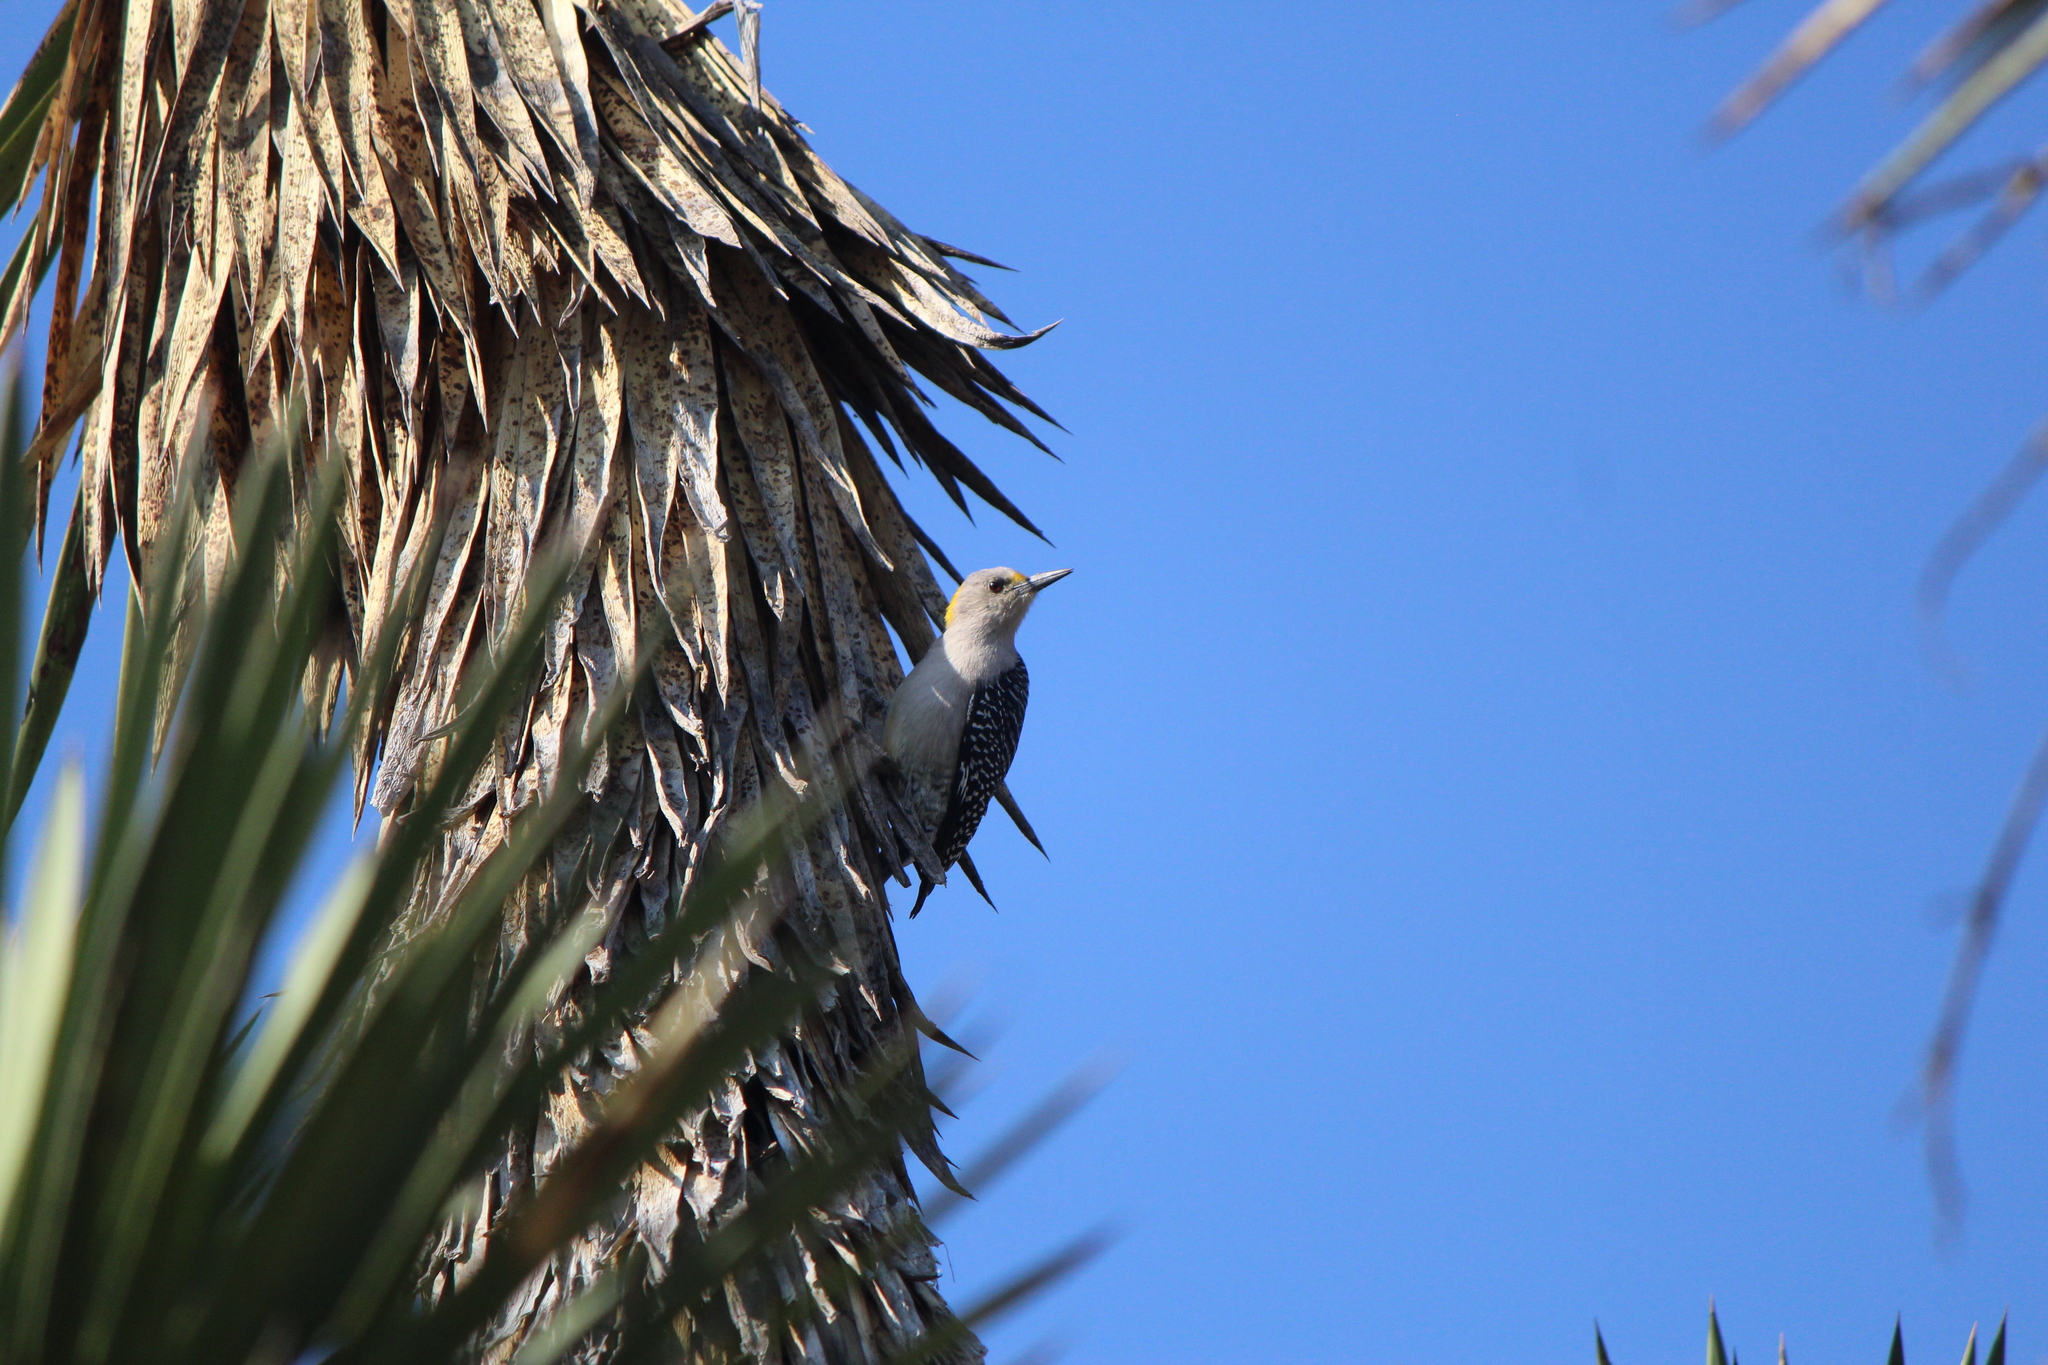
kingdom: Animalia
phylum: Chordata
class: Aves
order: Piciformes
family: Picidae
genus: Melanerpes
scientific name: Melanerpes aurifrons
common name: Golden-fronted woodpecker
